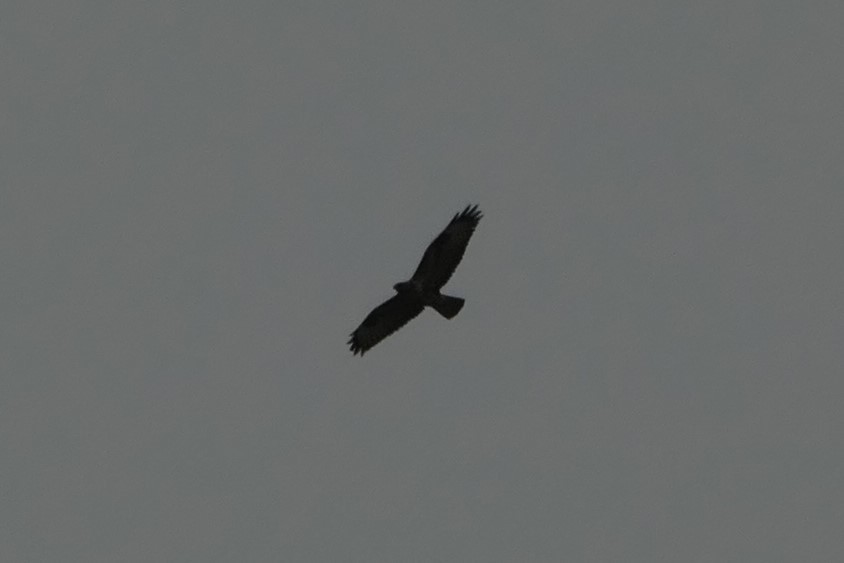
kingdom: Animalia
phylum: Chordata
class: Aves
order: Accipitriformes
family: Accipitridae
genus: Buteo
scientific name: Buteo buteo
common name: Common buzzard
